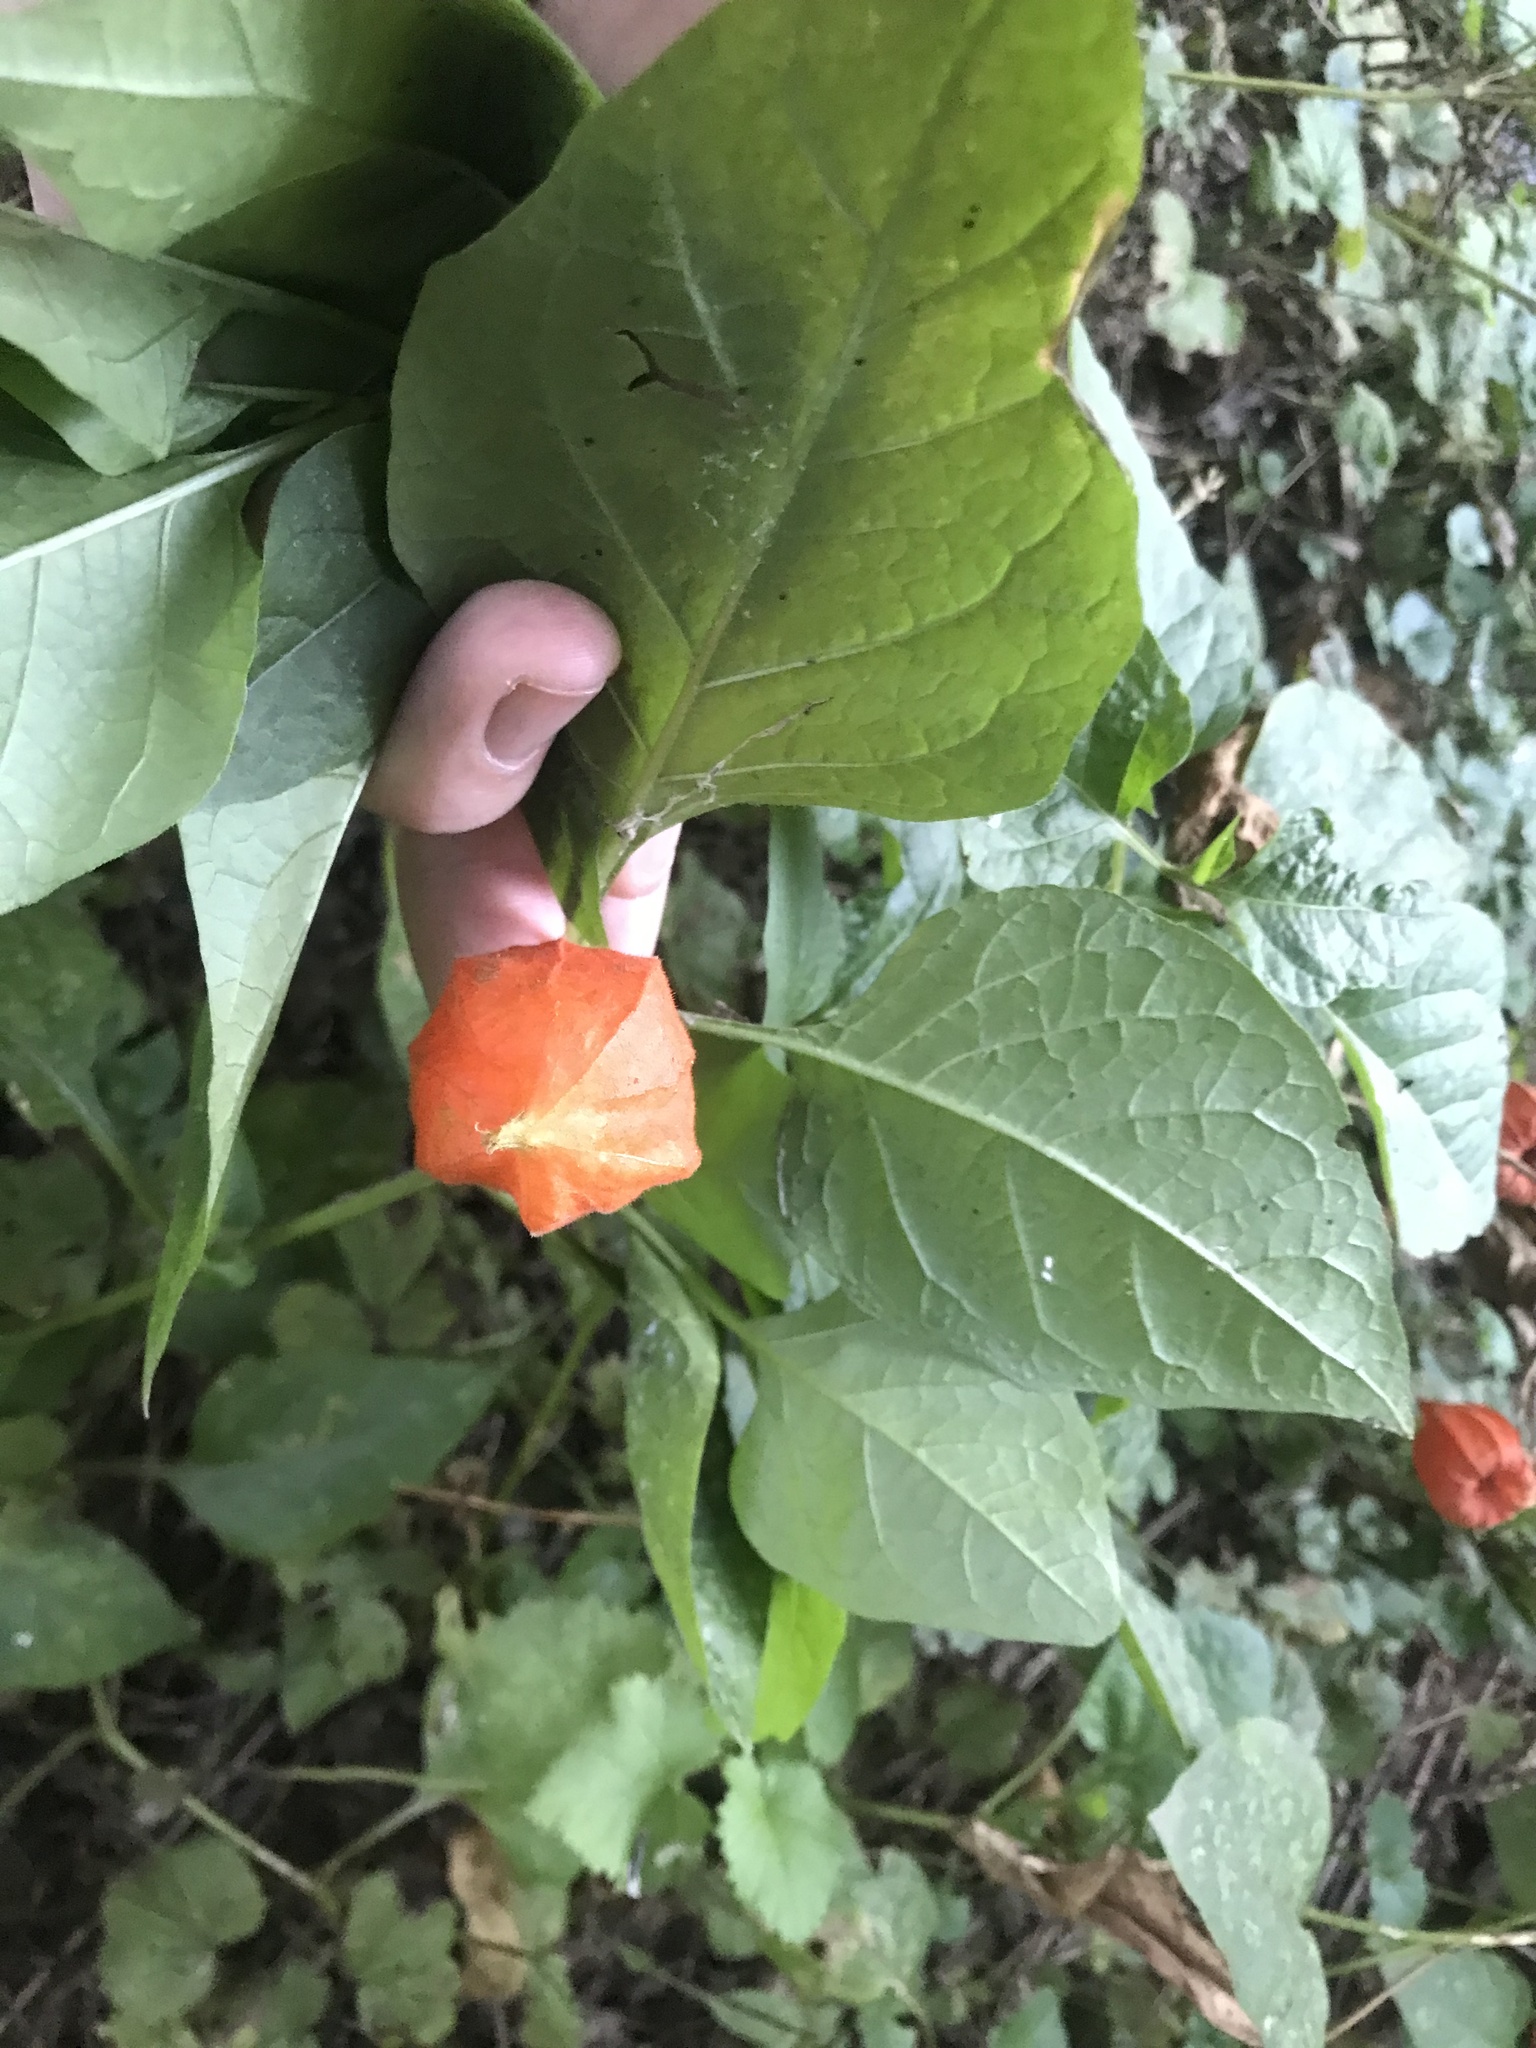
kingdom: Plantae
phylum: Tracheophyta
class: Magnoliopsida
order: Solanales
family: Solanaceae
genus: Alkekengi
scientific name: Alkekengi officinarum
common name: Japanese-lantern
